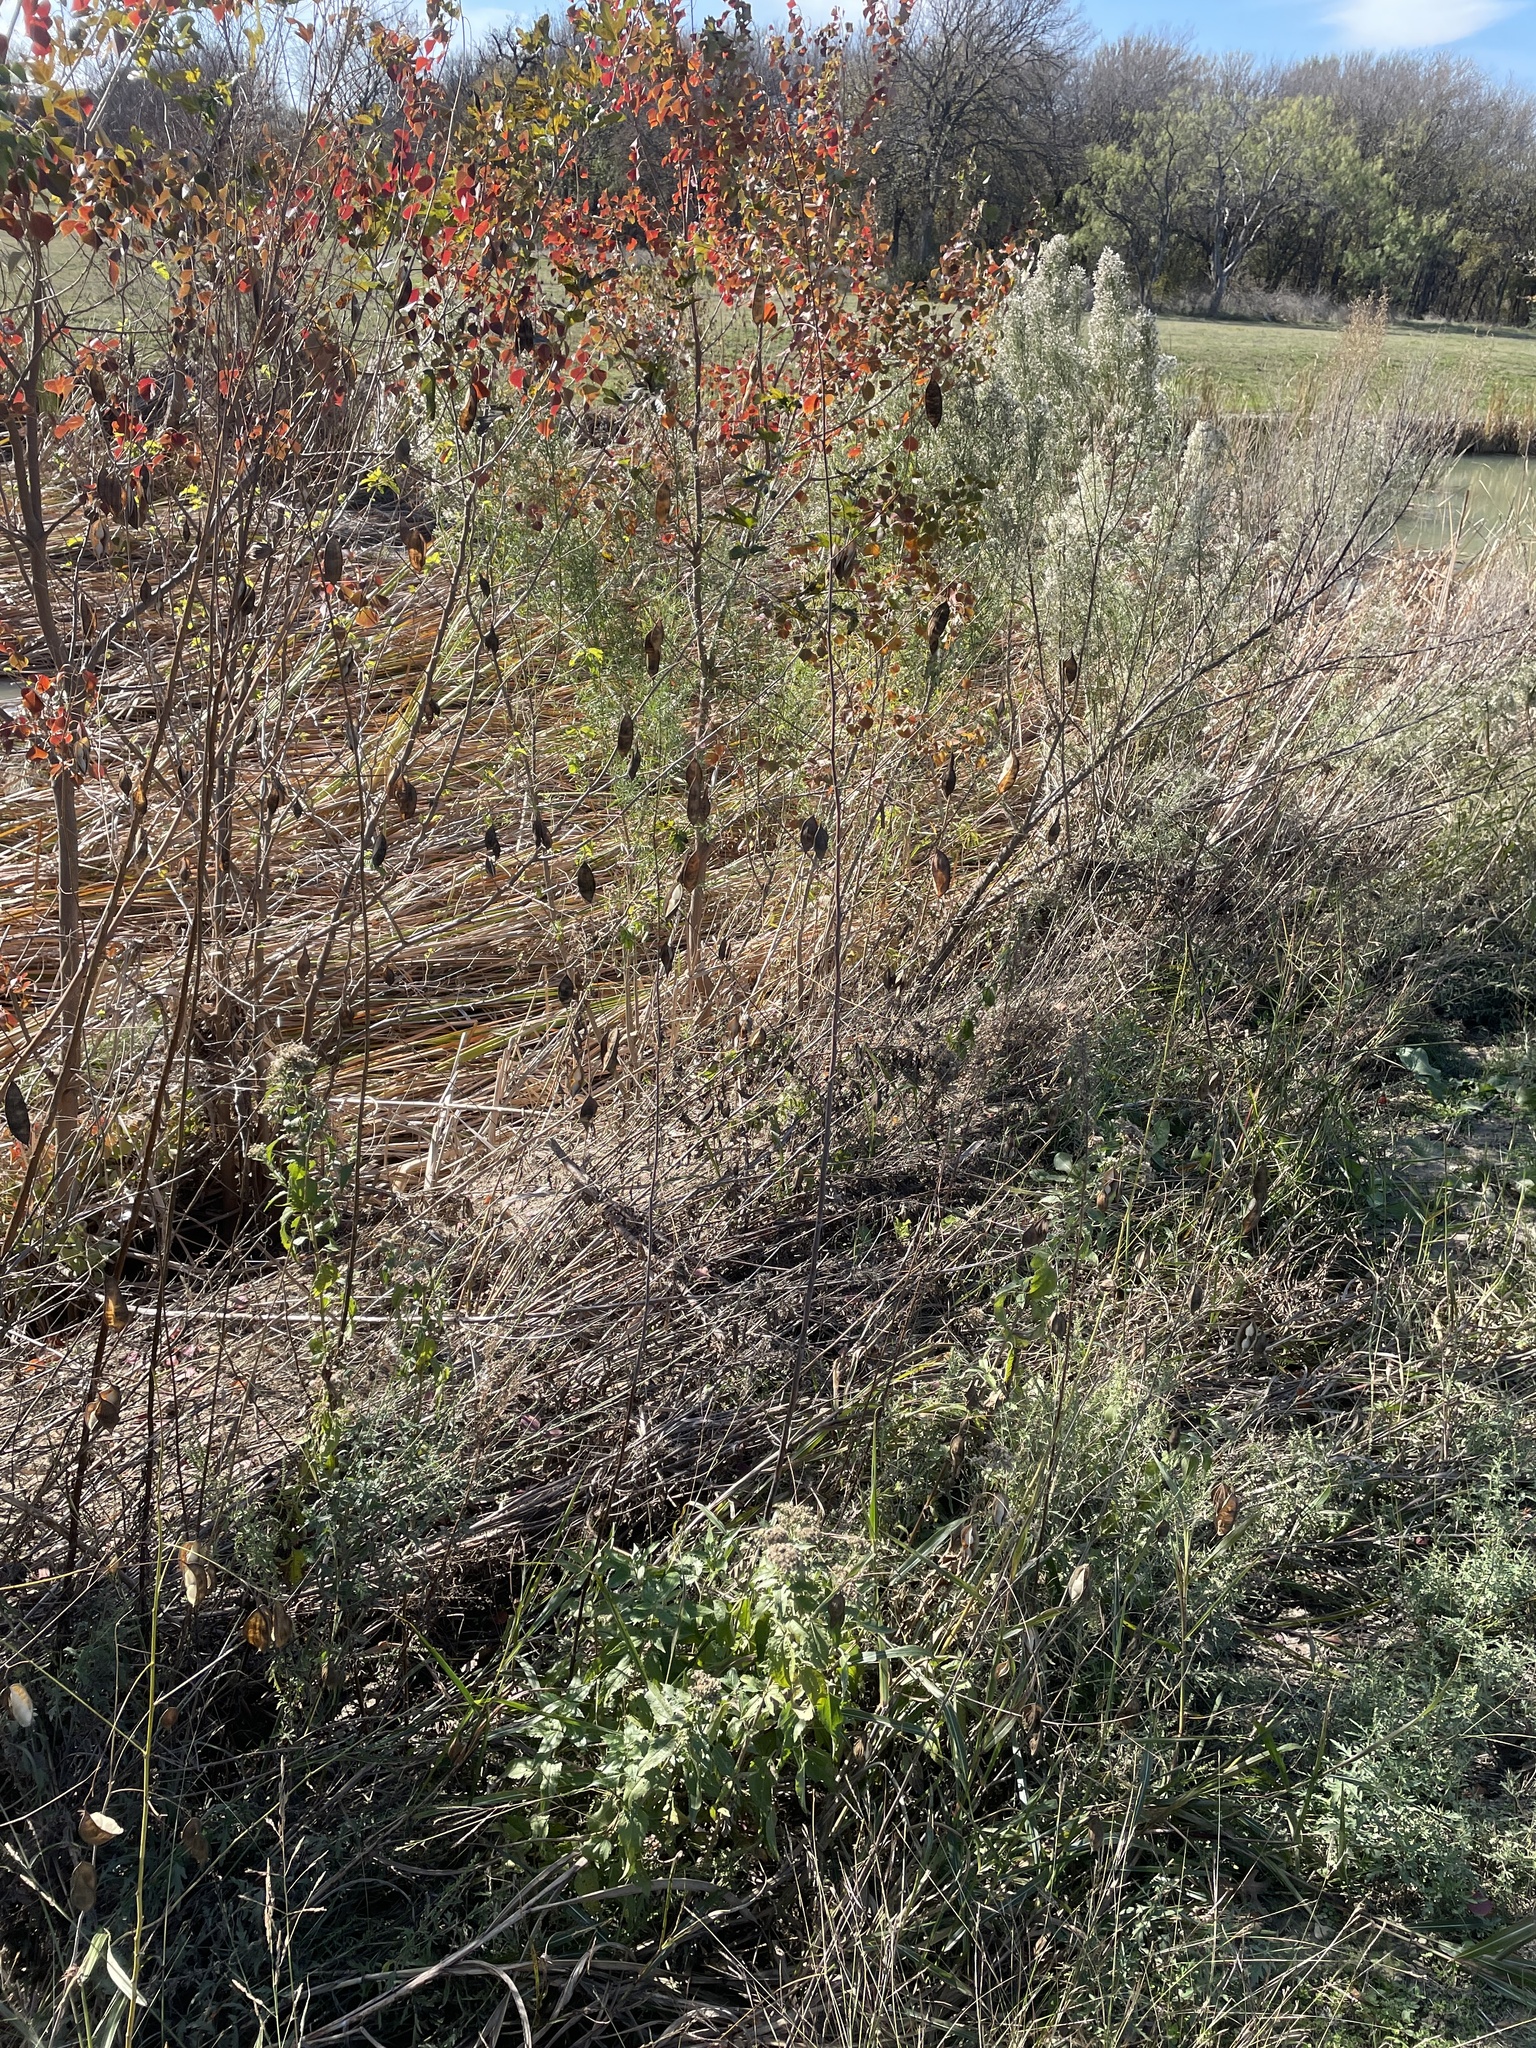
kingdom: Plantae
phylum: Tracheophyta
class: Magnoliopsida
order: Fabales
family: Fabaceae
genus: Sesbania
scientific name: Sesbania vesicaria
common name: Bagpod
